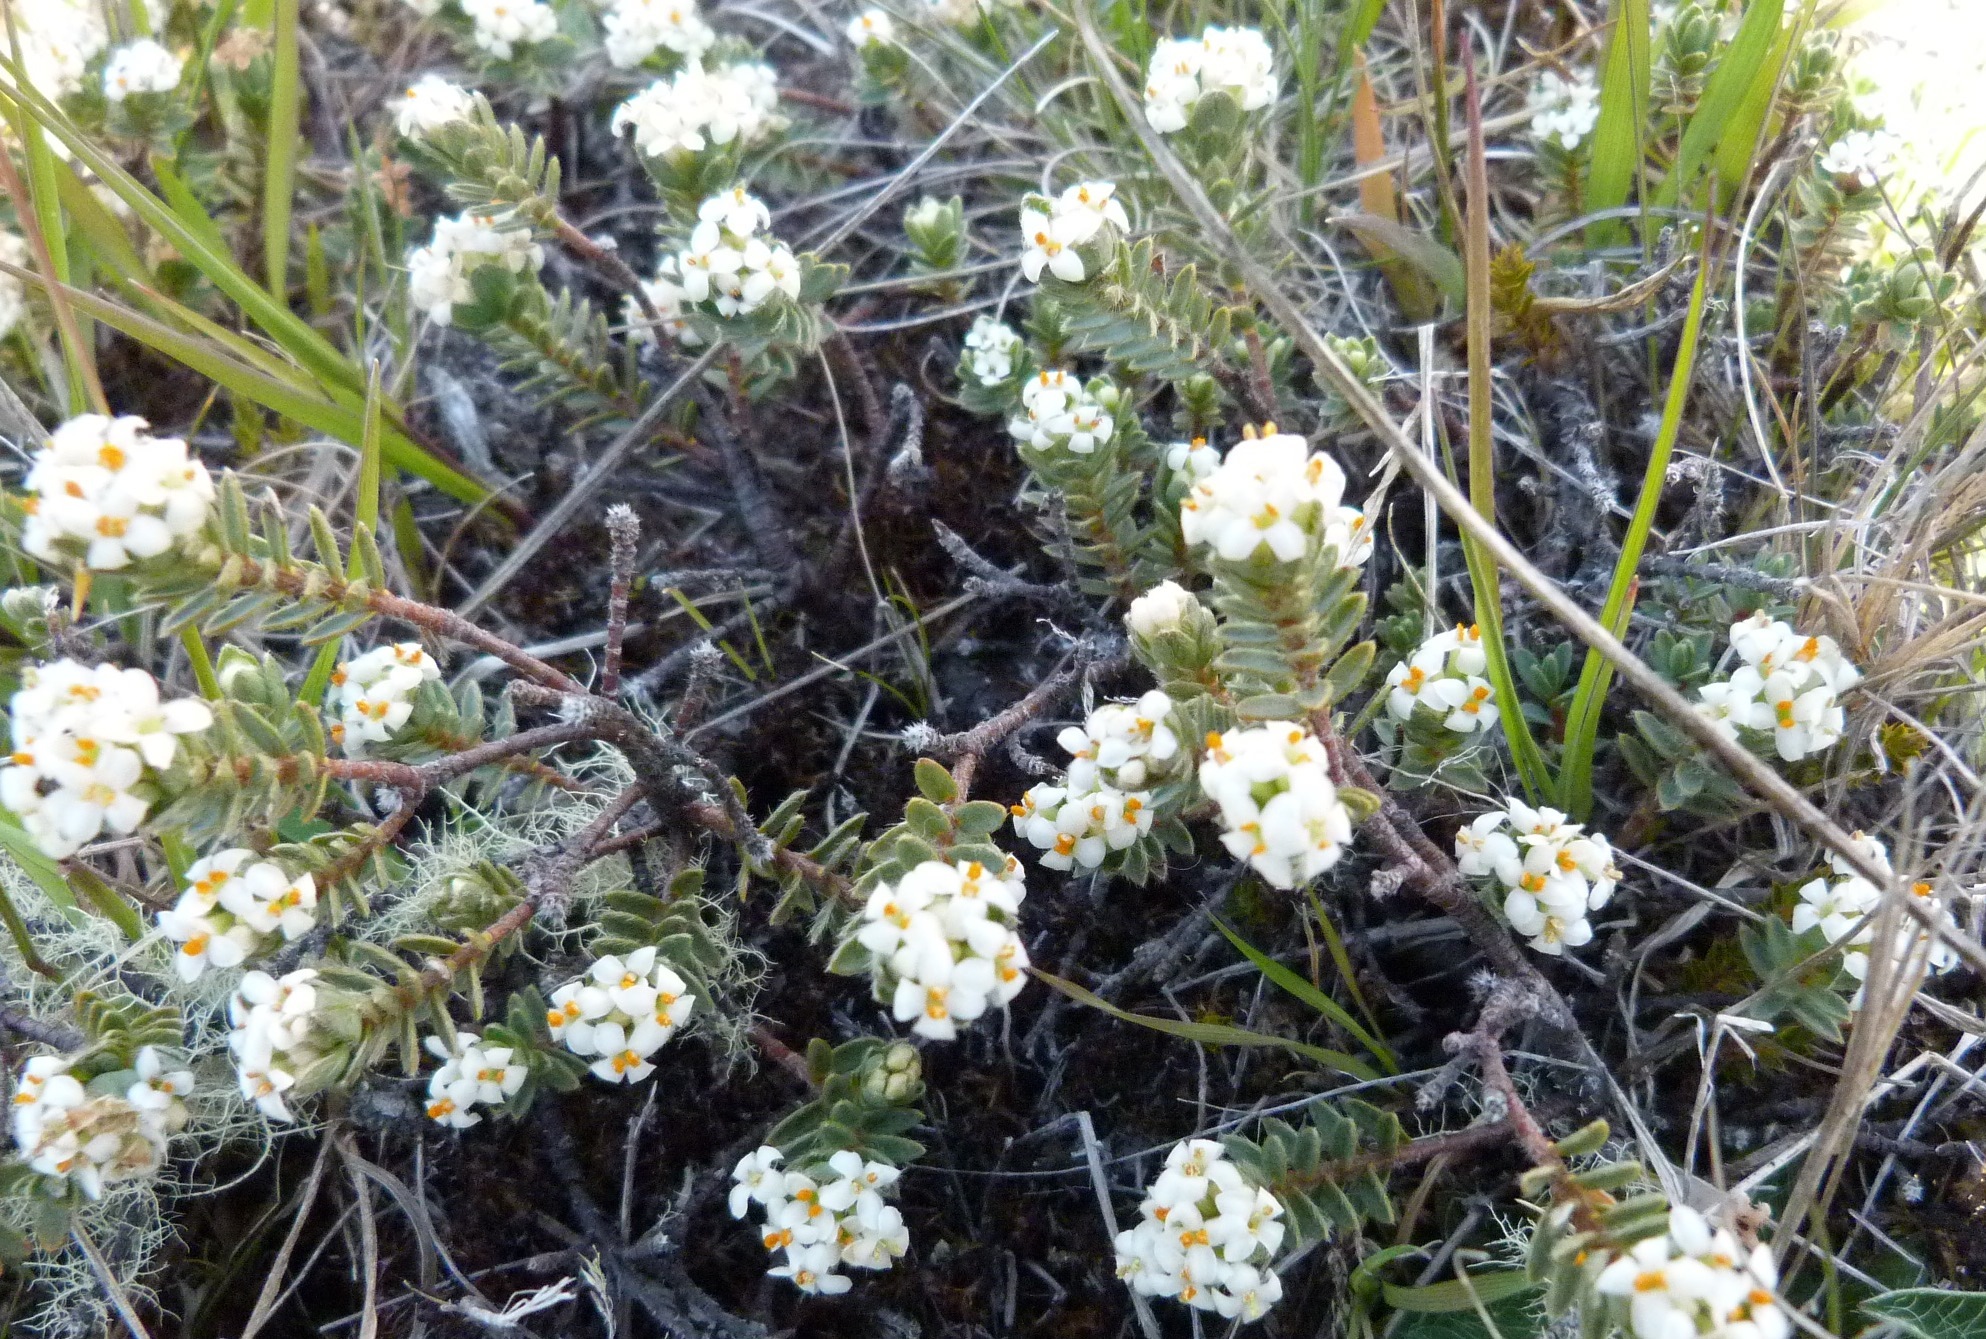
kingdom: Plantae
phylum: Tracheophyta
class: Magnoliopsida
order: Malvales
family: Thymelaeaceae
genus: Pimelea
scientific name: Pimelea oreophila
